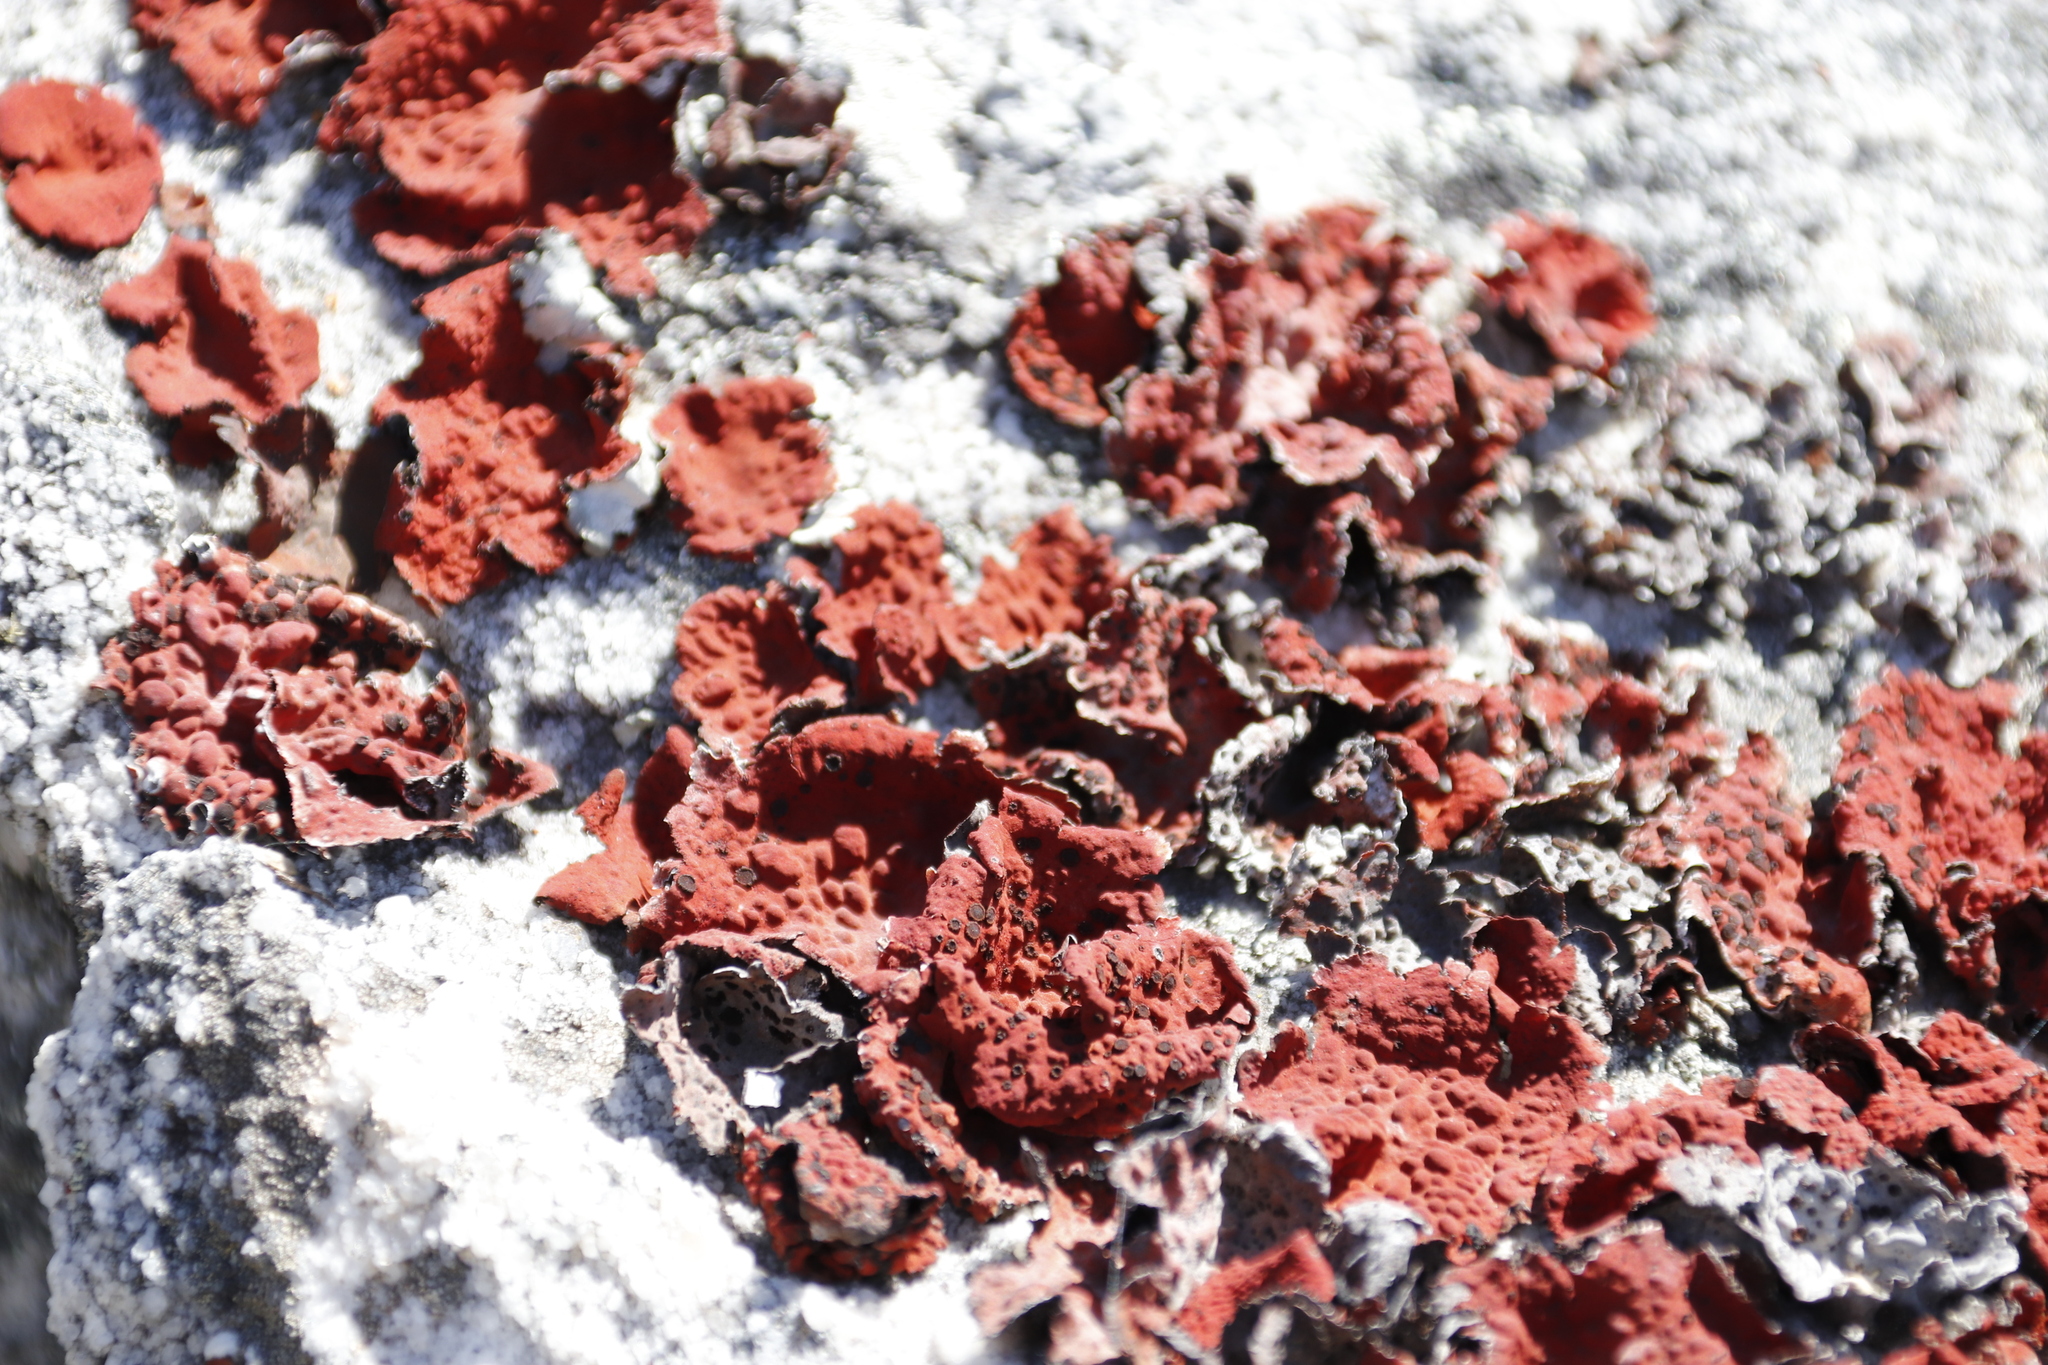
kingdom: Fungi
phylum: Ascomycota
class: Lecanoromycetes
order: Umbilicariales
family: Umbilicariaceae
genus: Lasallia
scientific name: Lasallia rubiginosa
